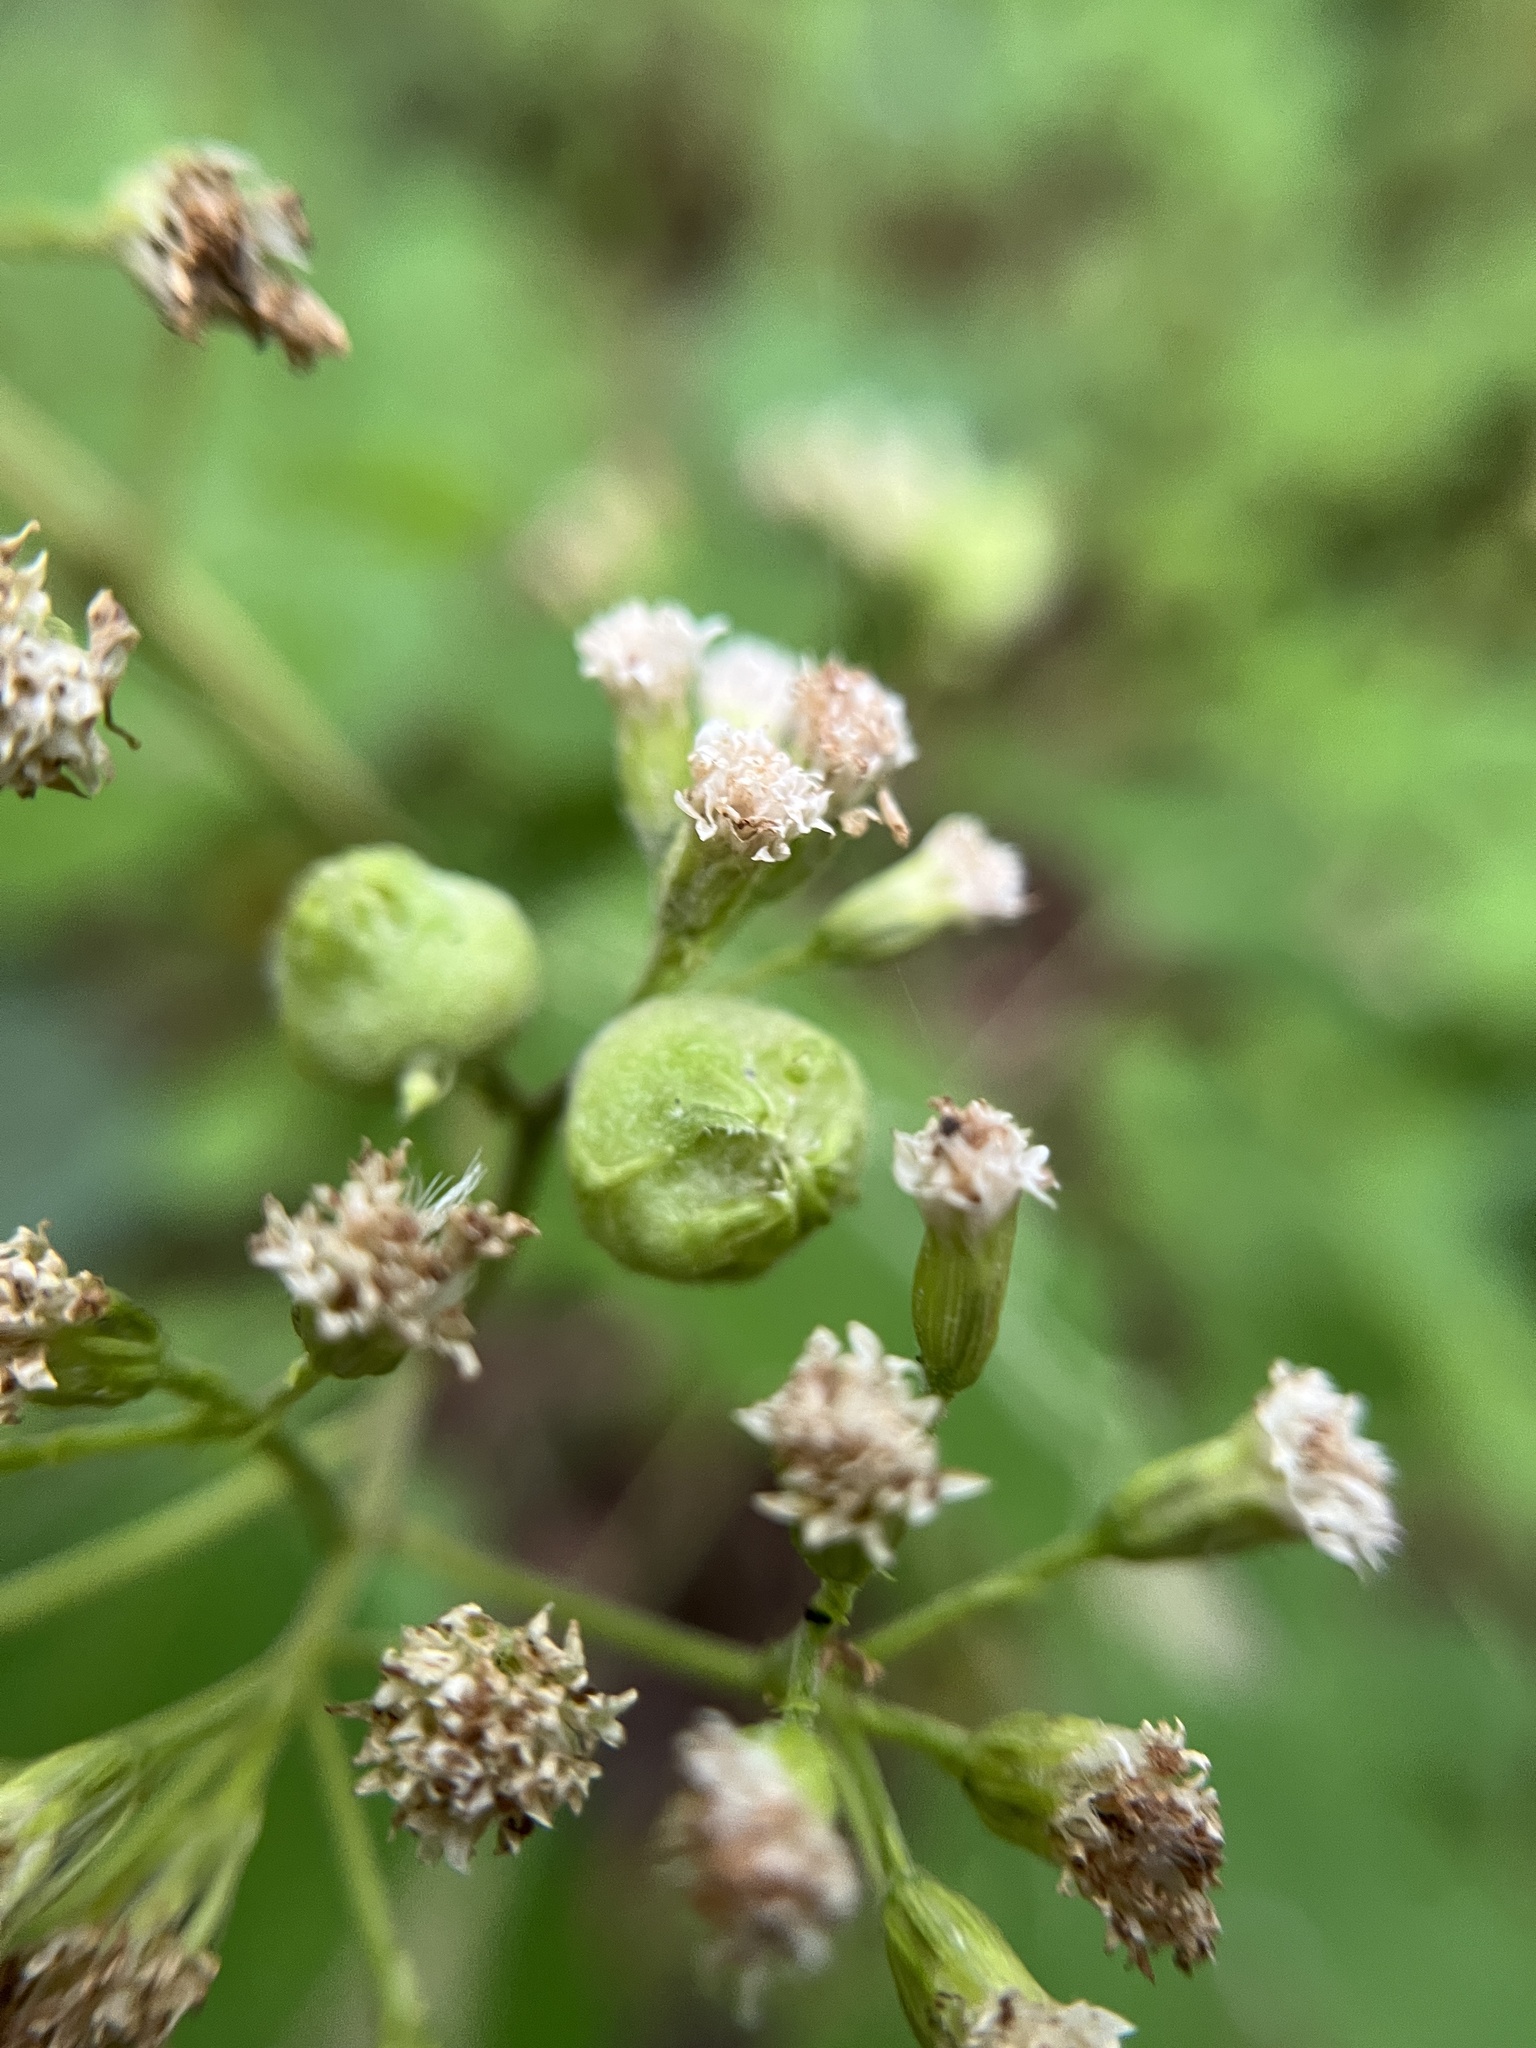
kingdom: Animalia
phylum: Arthropoda
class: Insecta
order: Diptera
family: Cecidomyiidae
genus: Schizomyia
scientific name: Schizomyia eupatoriflorae
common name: Boneset flower gall midge
